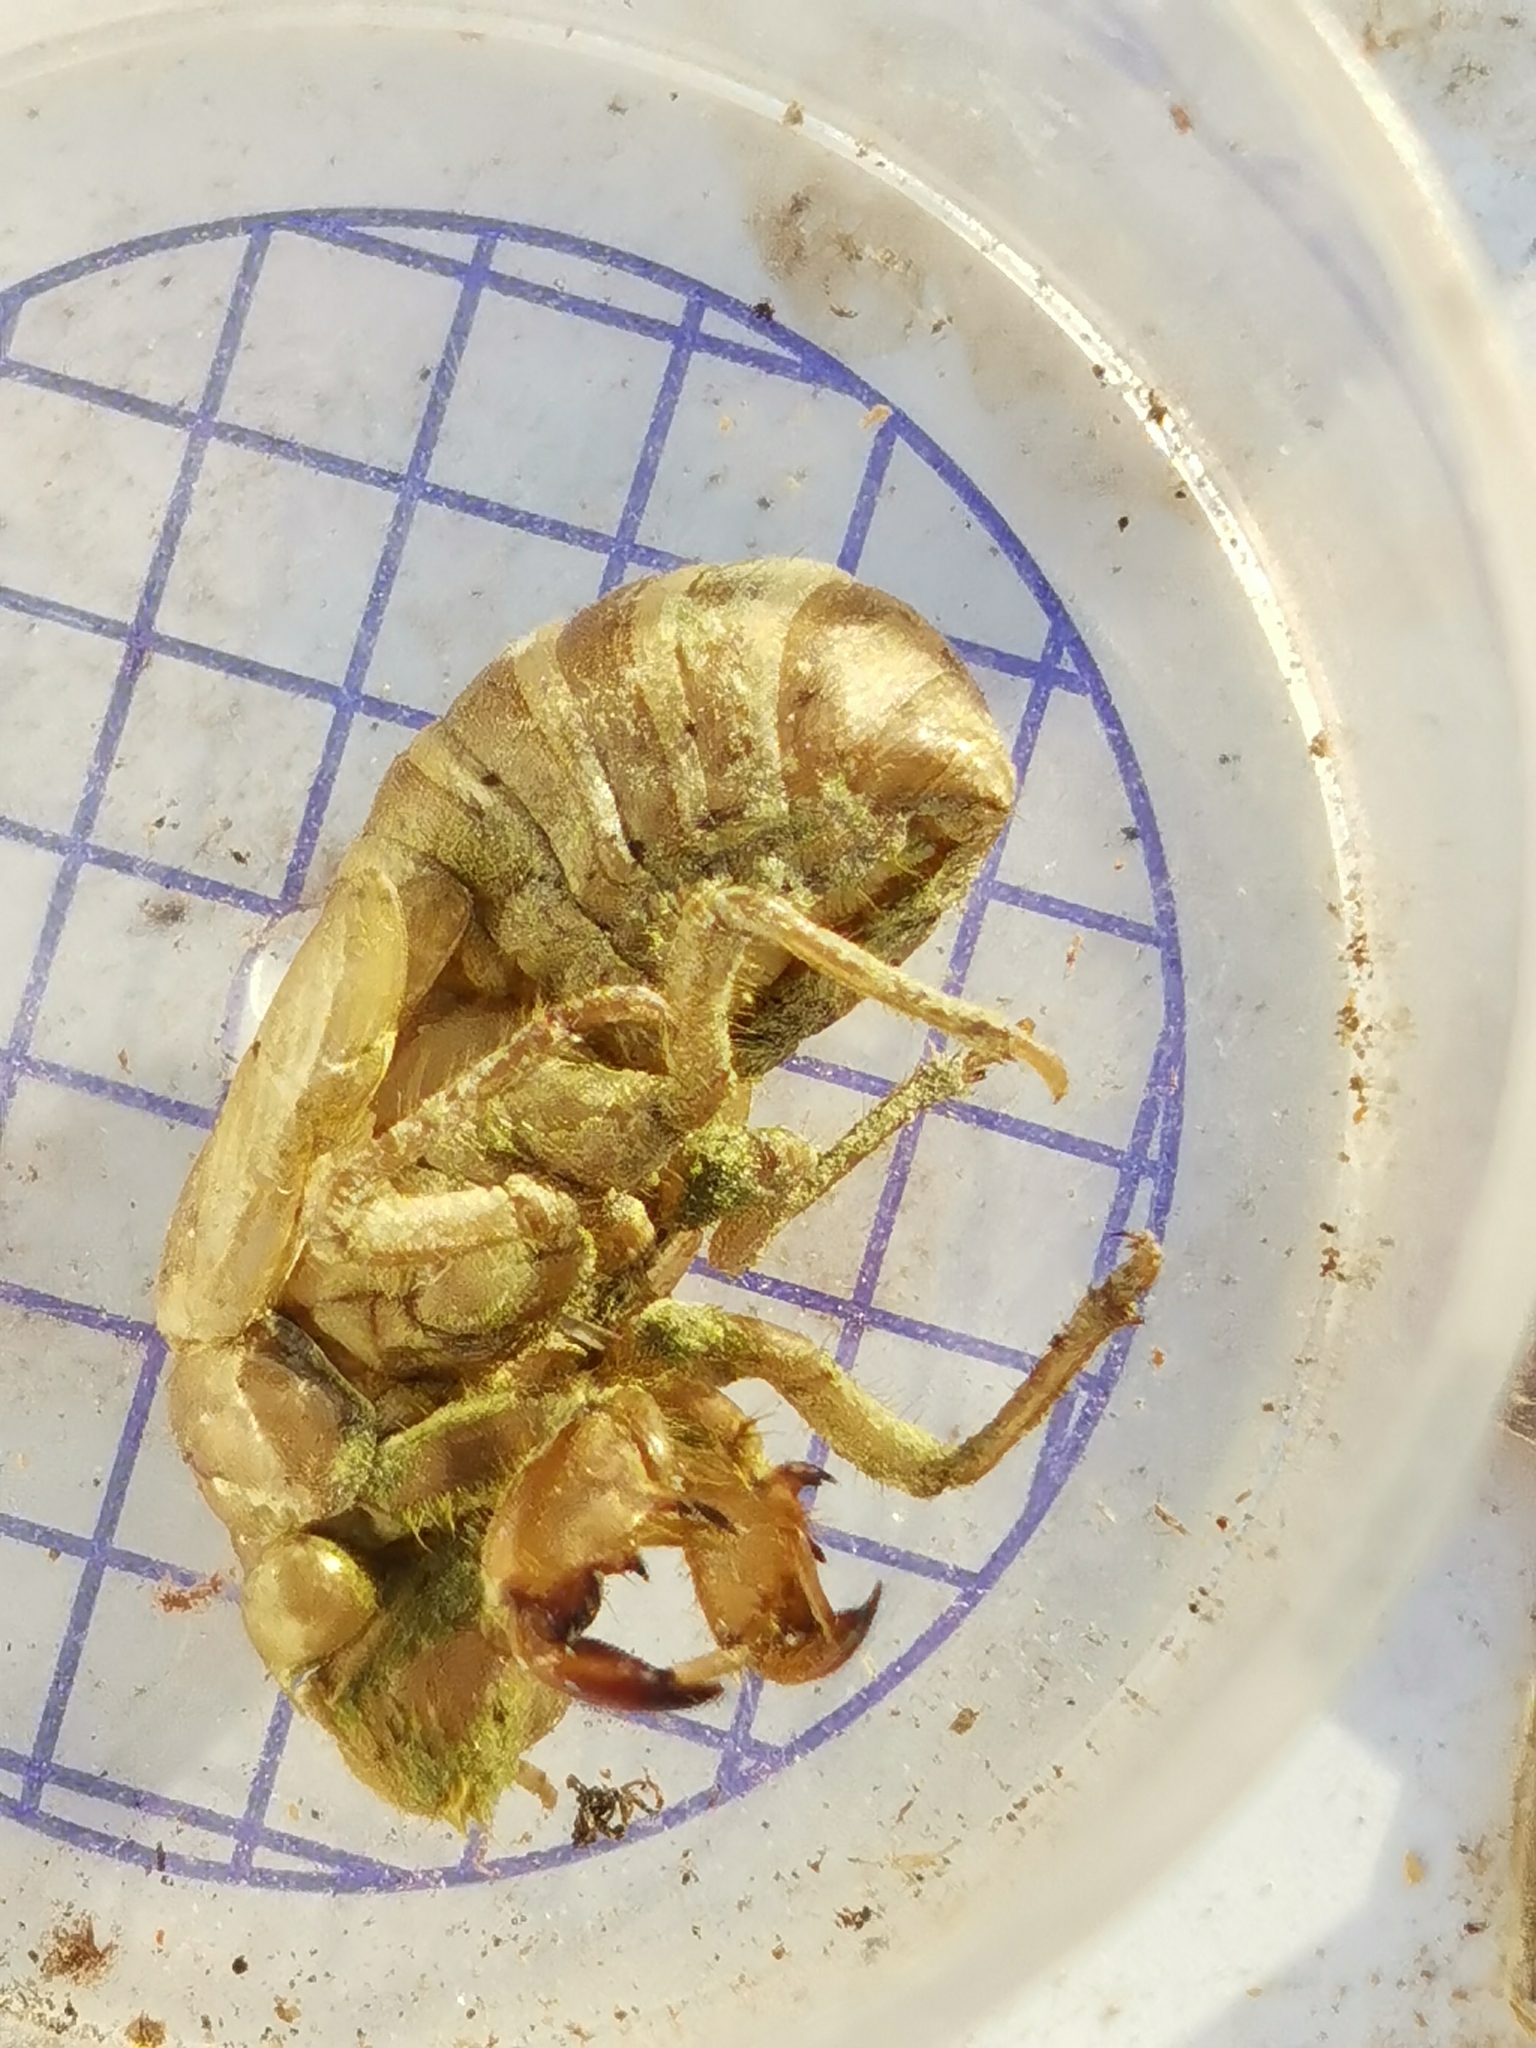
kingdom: Animalia
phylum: Arthropoda
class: Insecta
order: Hemiptera
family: Cicadidae
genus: Lyristes
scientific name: Lyristes plebejus
